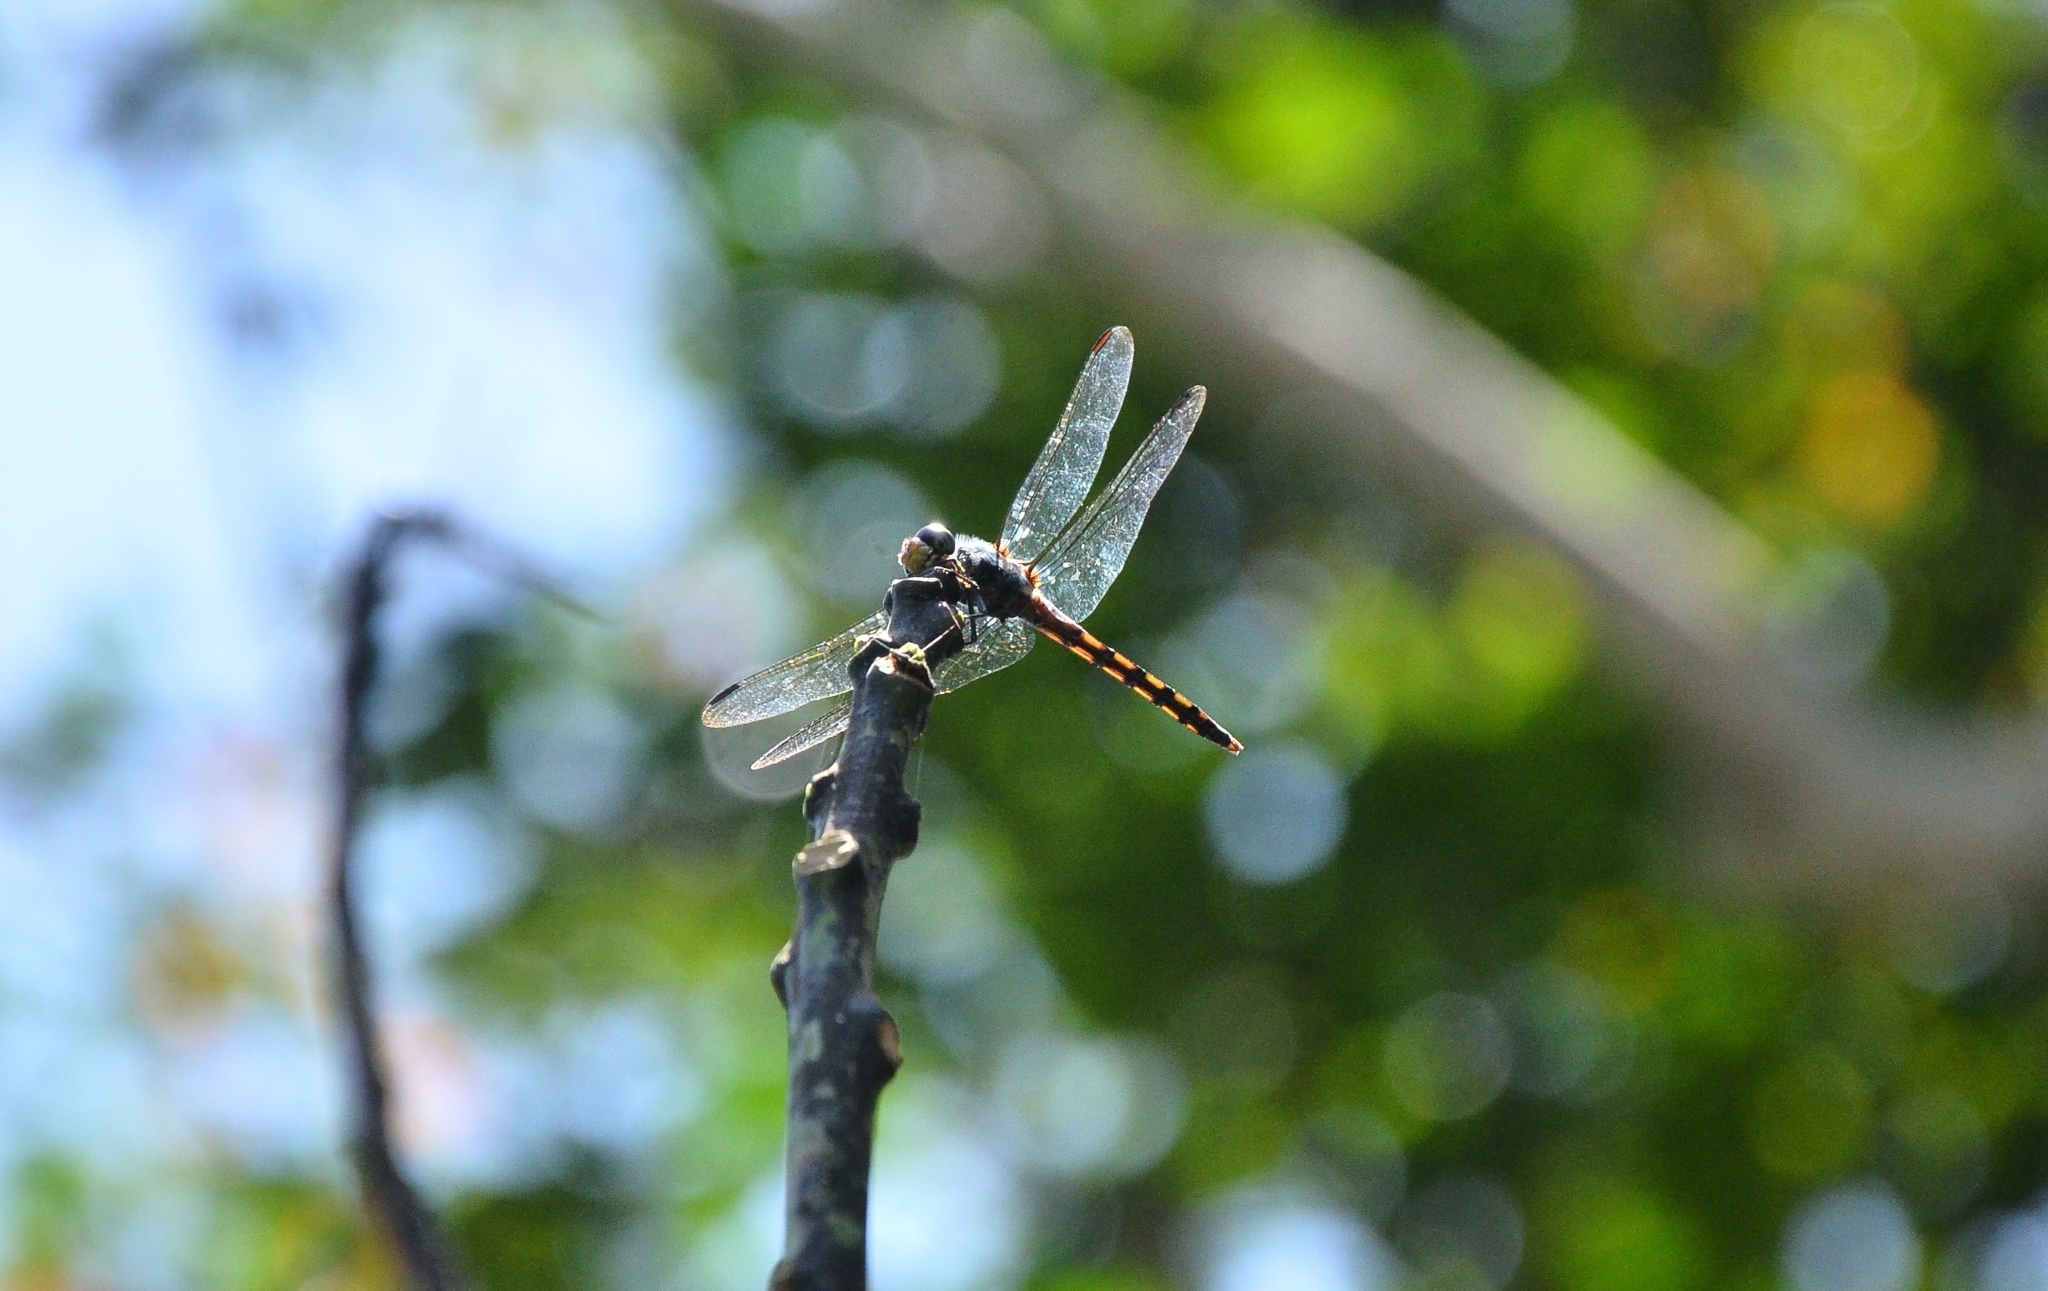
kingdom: Animalia
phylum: Arthropoda
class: Insecta
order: Odonata
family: Libellulidae
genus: Potamarcha
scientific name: Potamarcha congener
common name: Blue chaser
